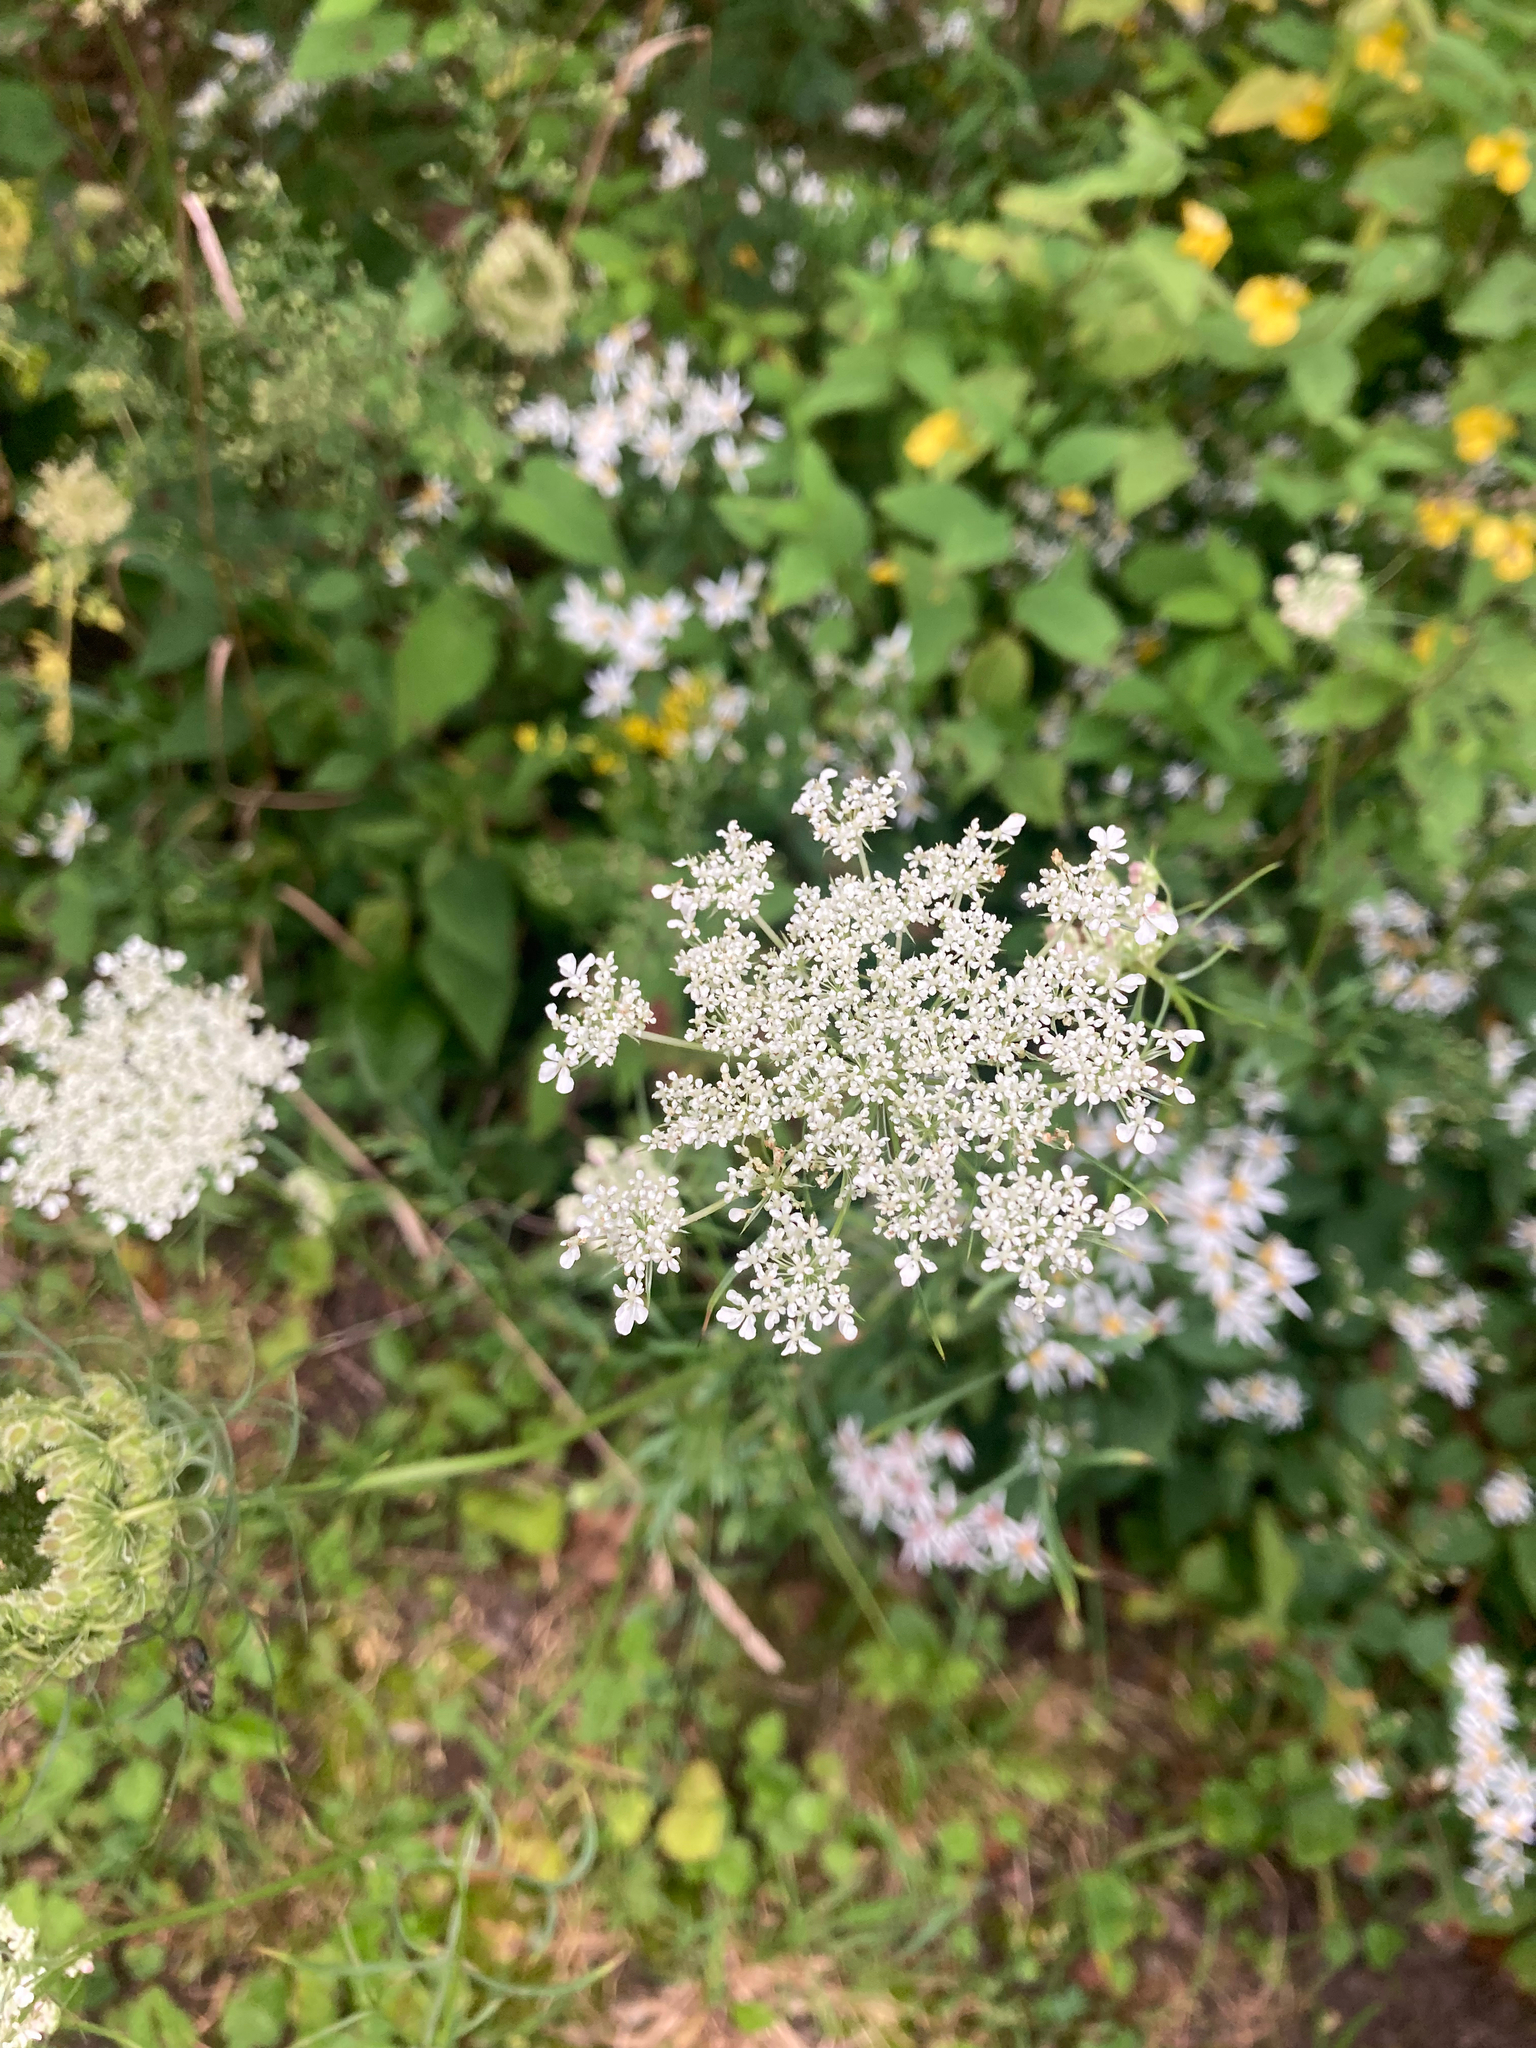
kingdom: Plantae
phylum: Tracheophyta
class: Magnoliopsida
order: Apiales
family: Apiaceae
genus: Daucus
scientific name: Daucus carota
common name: Wild carrot
